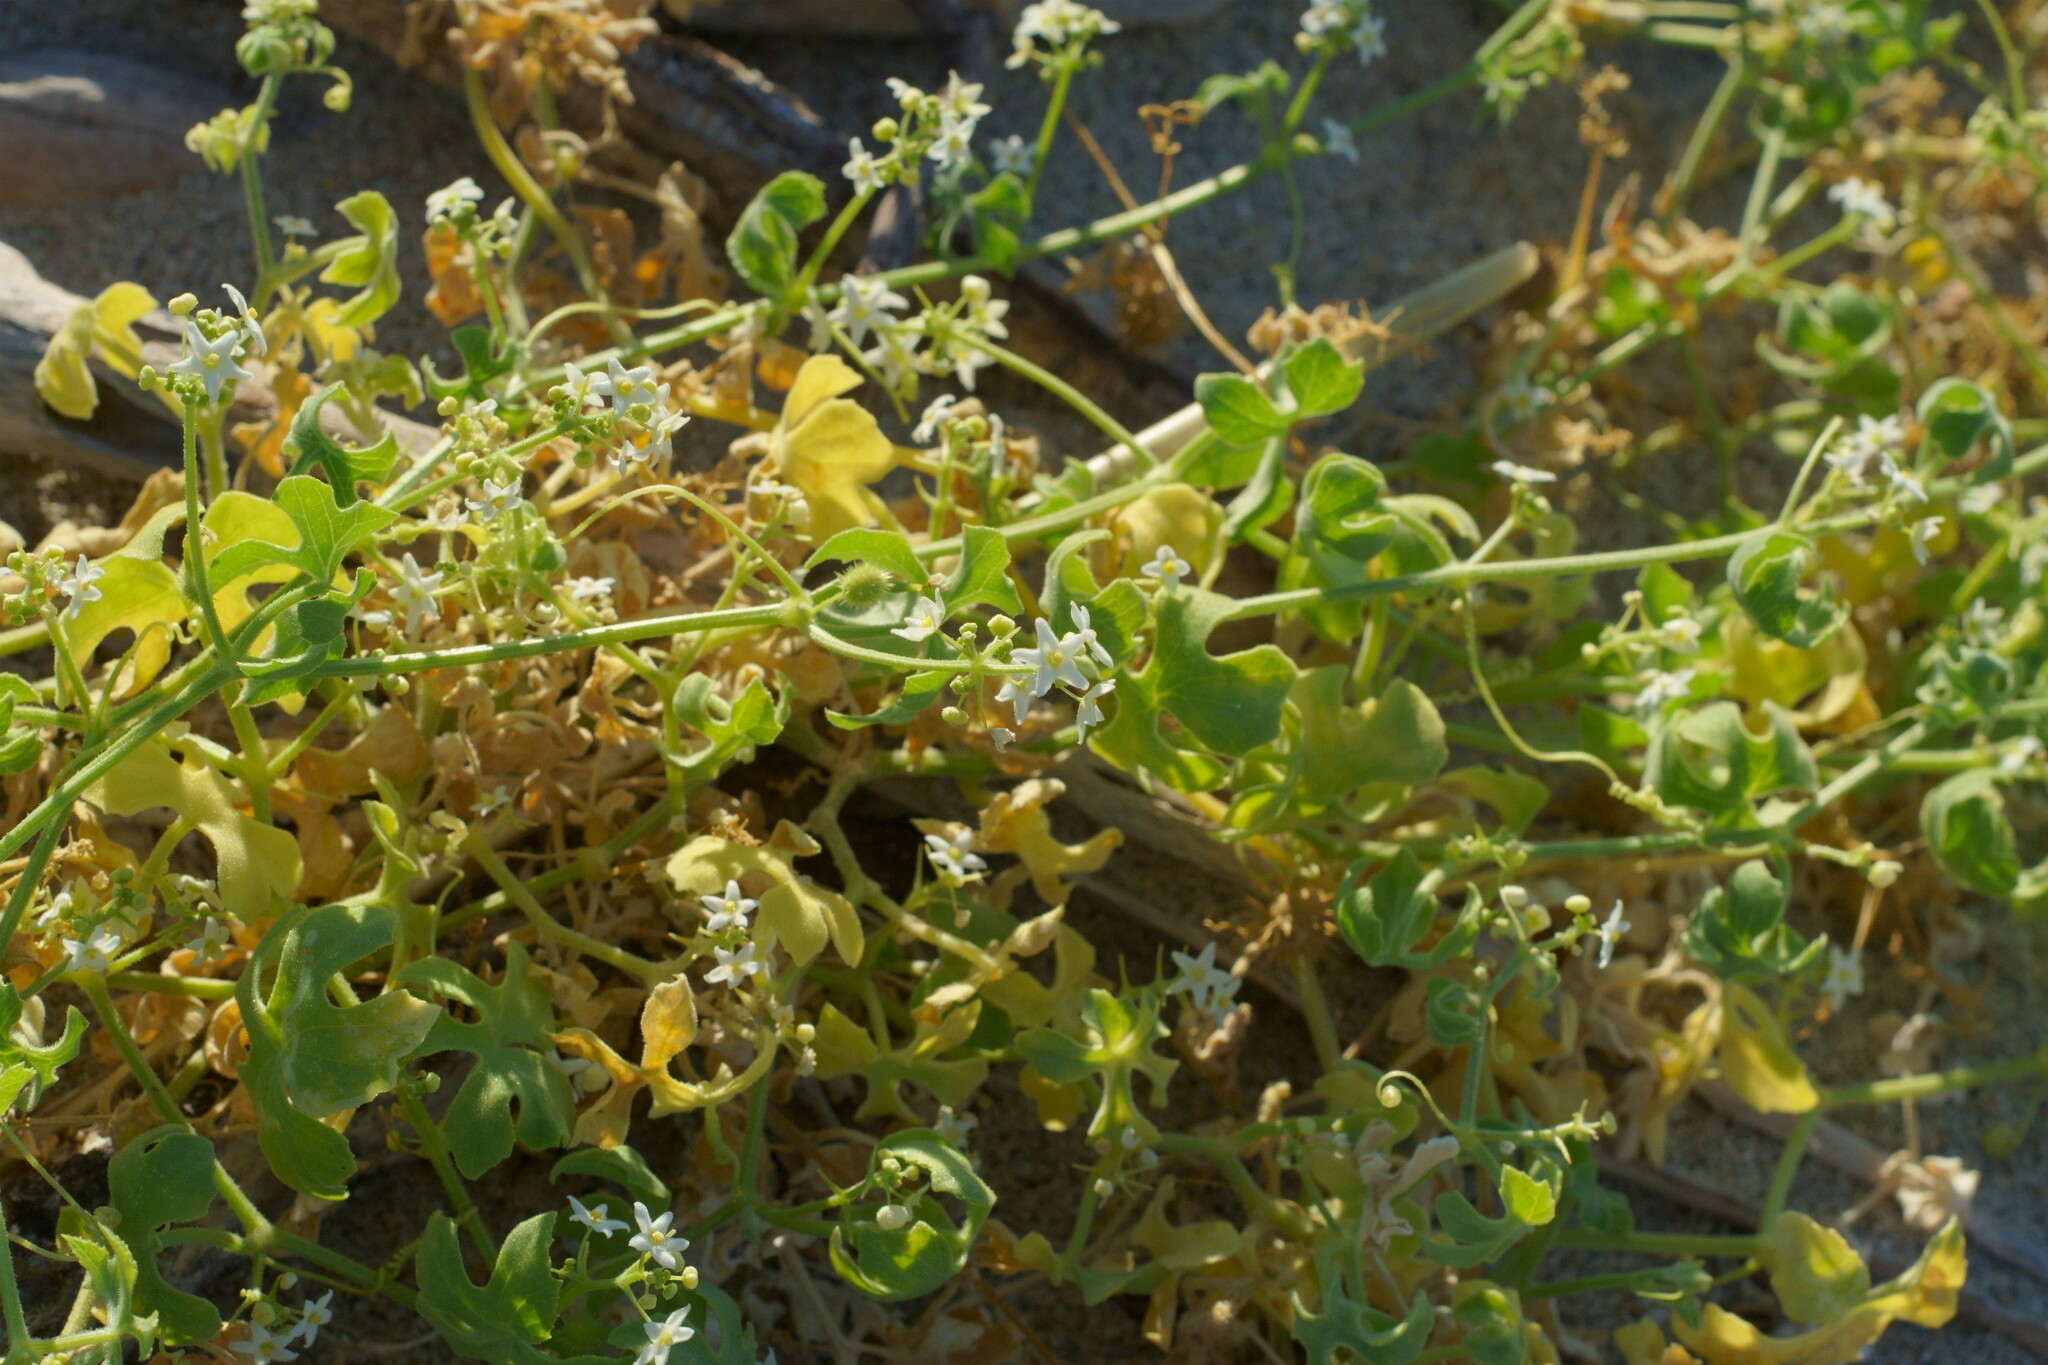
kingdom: Plantae
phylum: Tracheophyta
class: Magnoliopsida
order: Cucurbitales
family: Cucurbitaceae
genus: Echinopepon
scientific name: Echinopepon bigelovii
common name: Desert starvine
